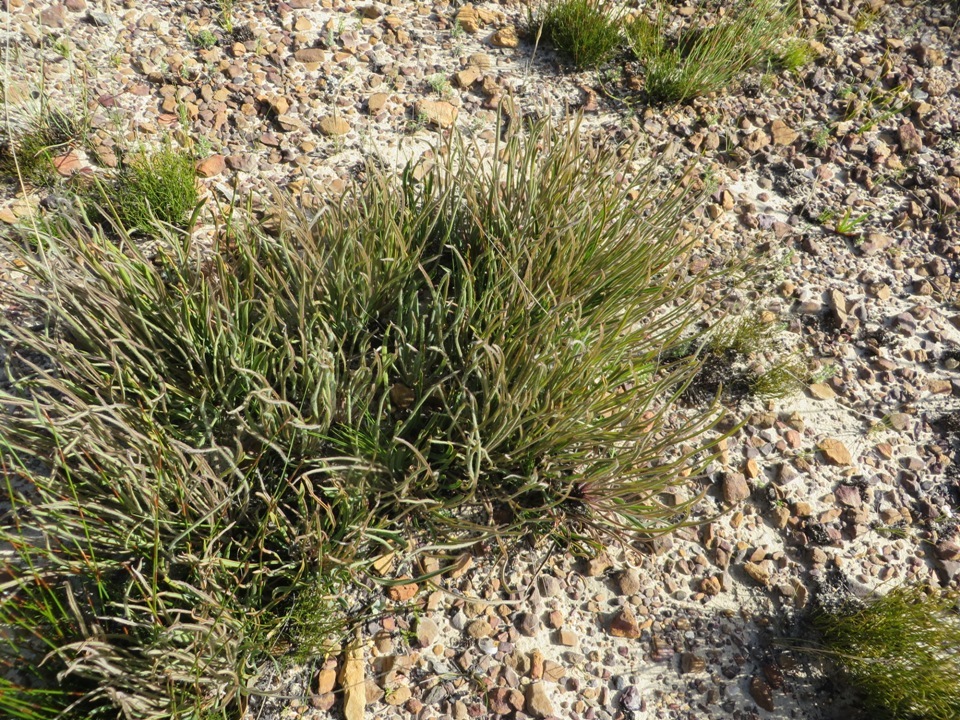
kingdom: Plantae
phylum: Tracheophyta
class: Magnoliopsida
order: Proteales
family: Proteaceae
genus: Protea
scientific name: Protea piscina
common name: Visgat sugarbush
